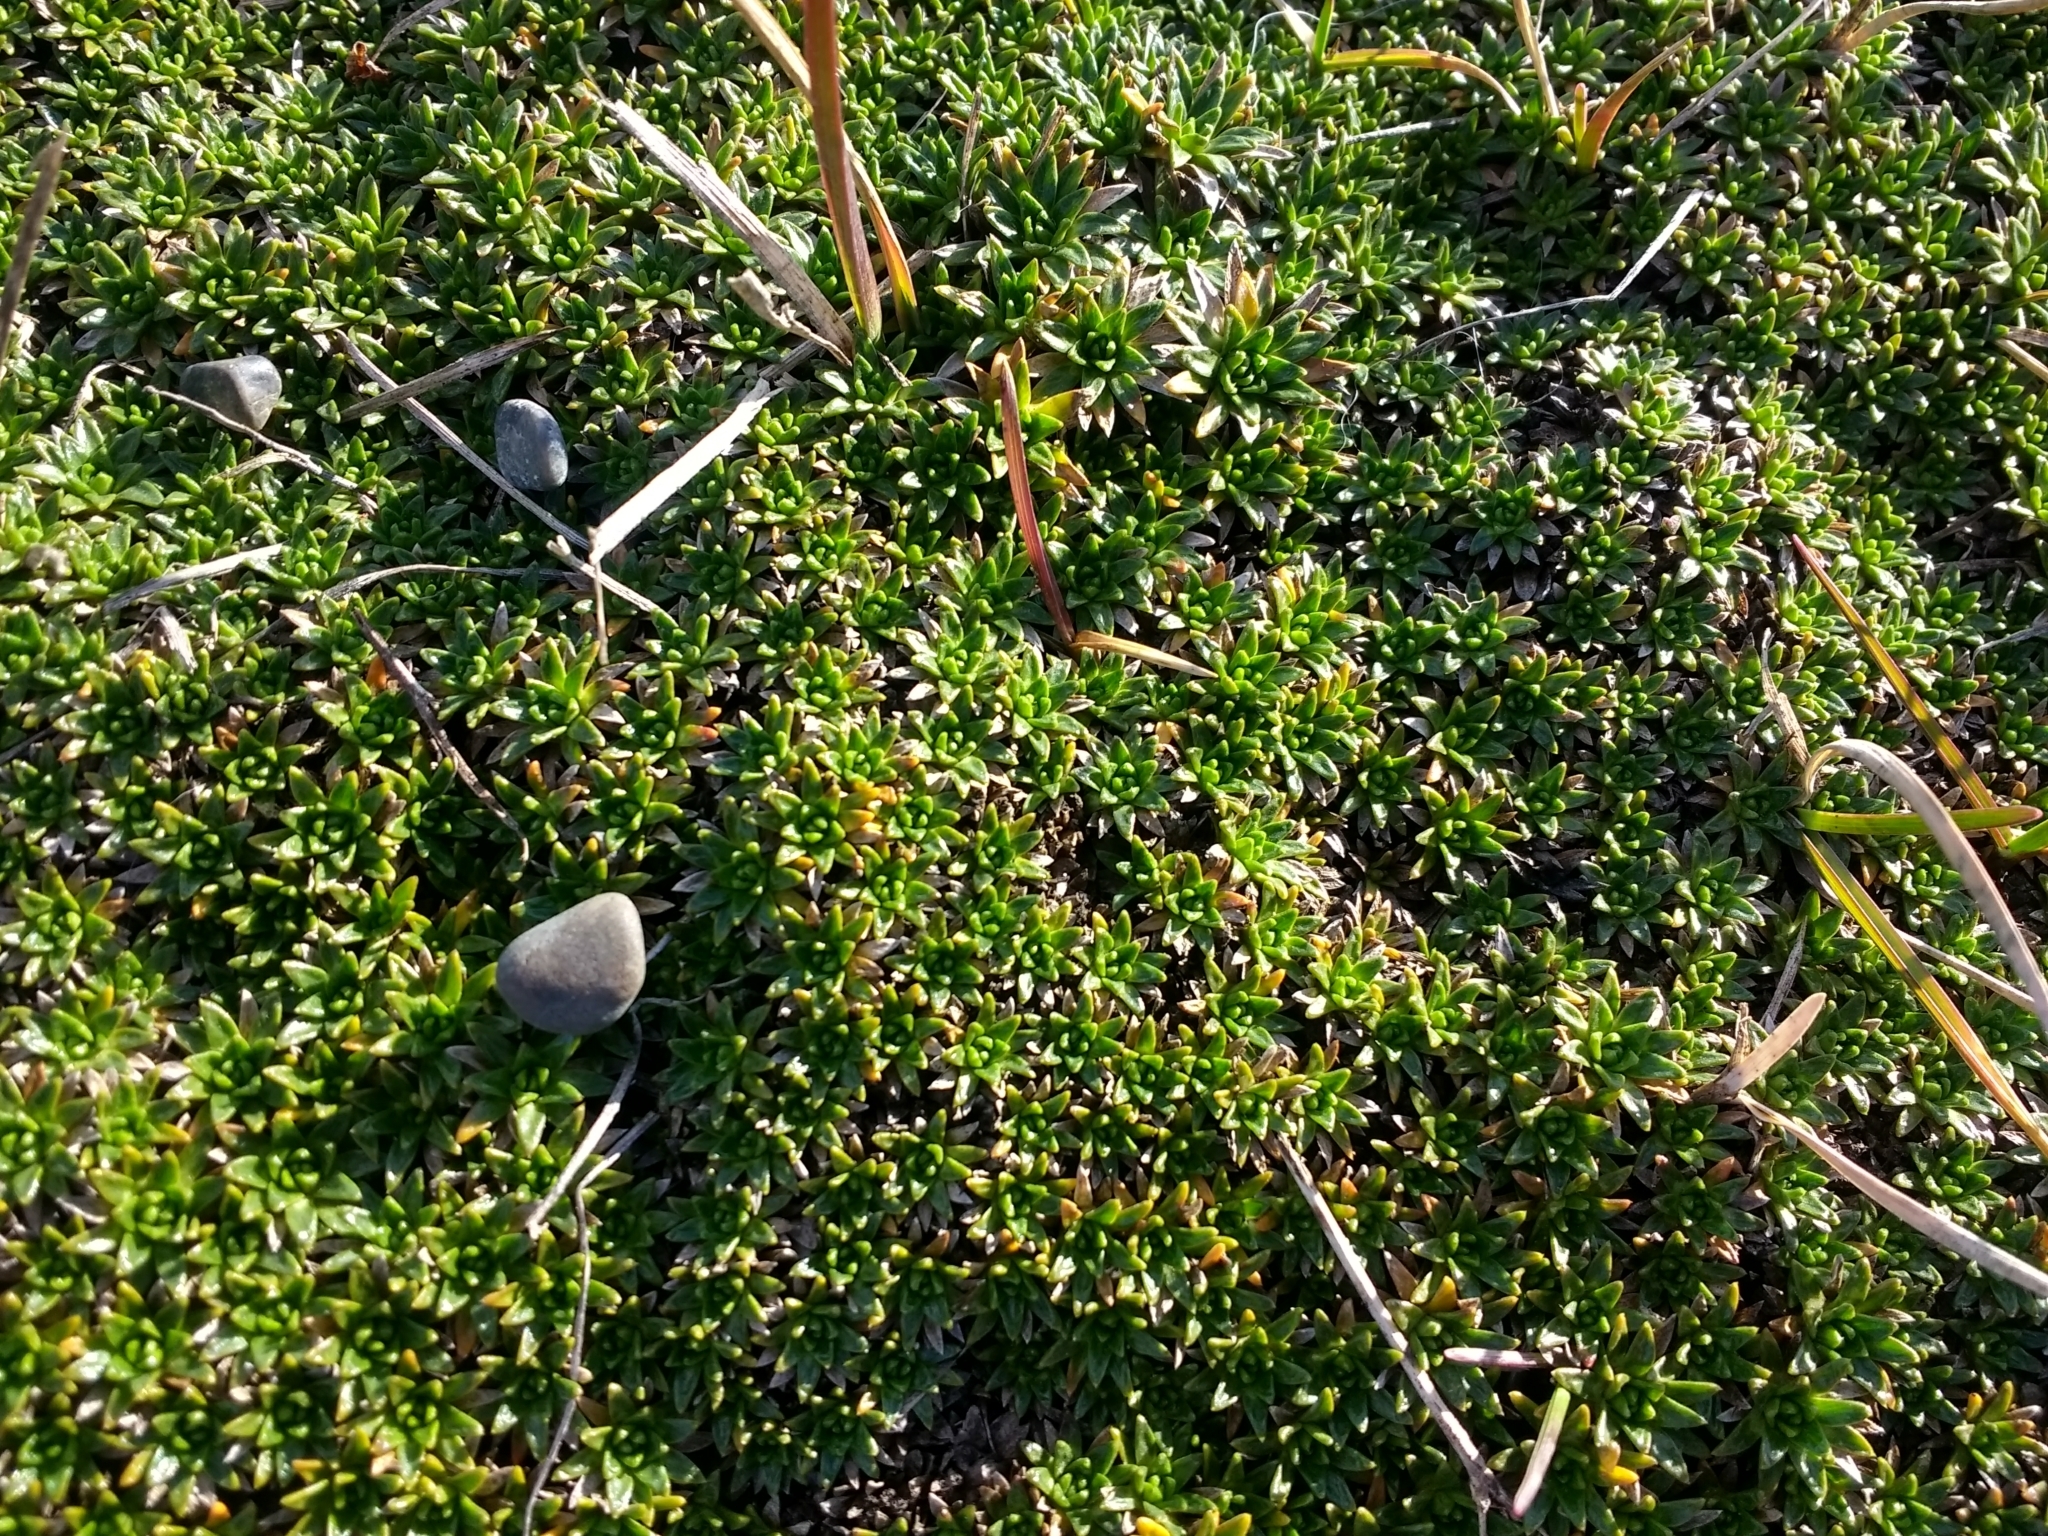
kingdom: Plantae
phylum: Tracheophyta
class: Magnoliopsida
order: Apiales
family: Apiaceae
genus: Azorella
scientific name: Azorella monantha
